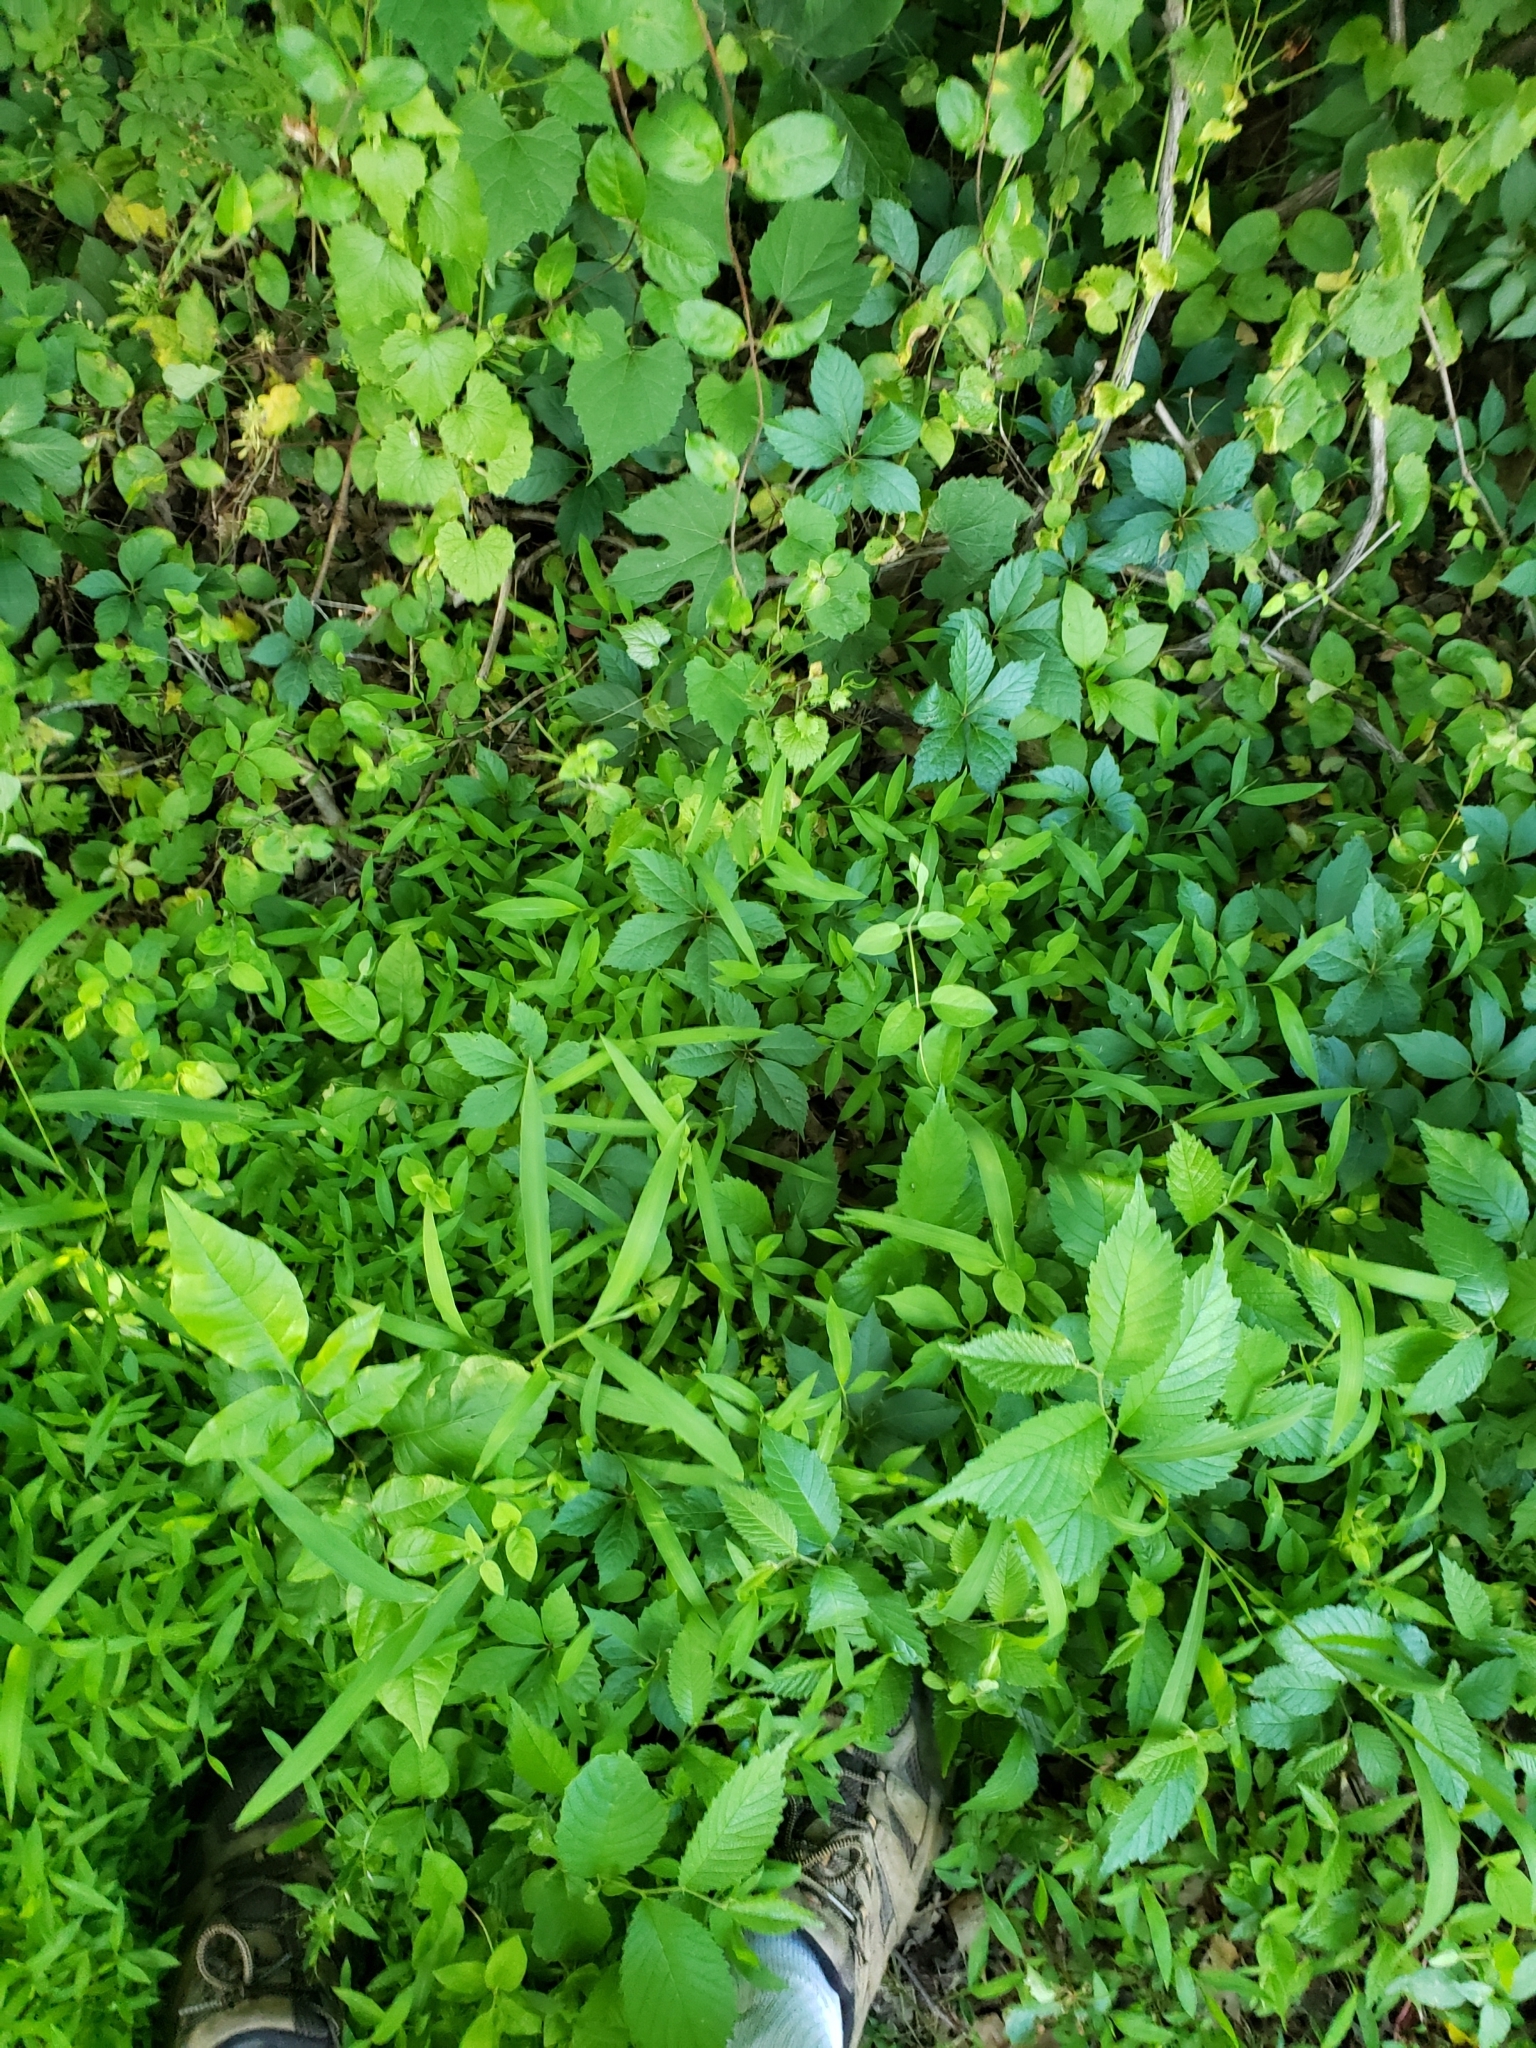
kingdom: Animalia
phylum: Arthropoda
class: Insecta
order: Hemiptera
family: Aphididae
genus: Tetraneura
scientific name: Tetraneura nigriabdominalis
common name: Aphid
